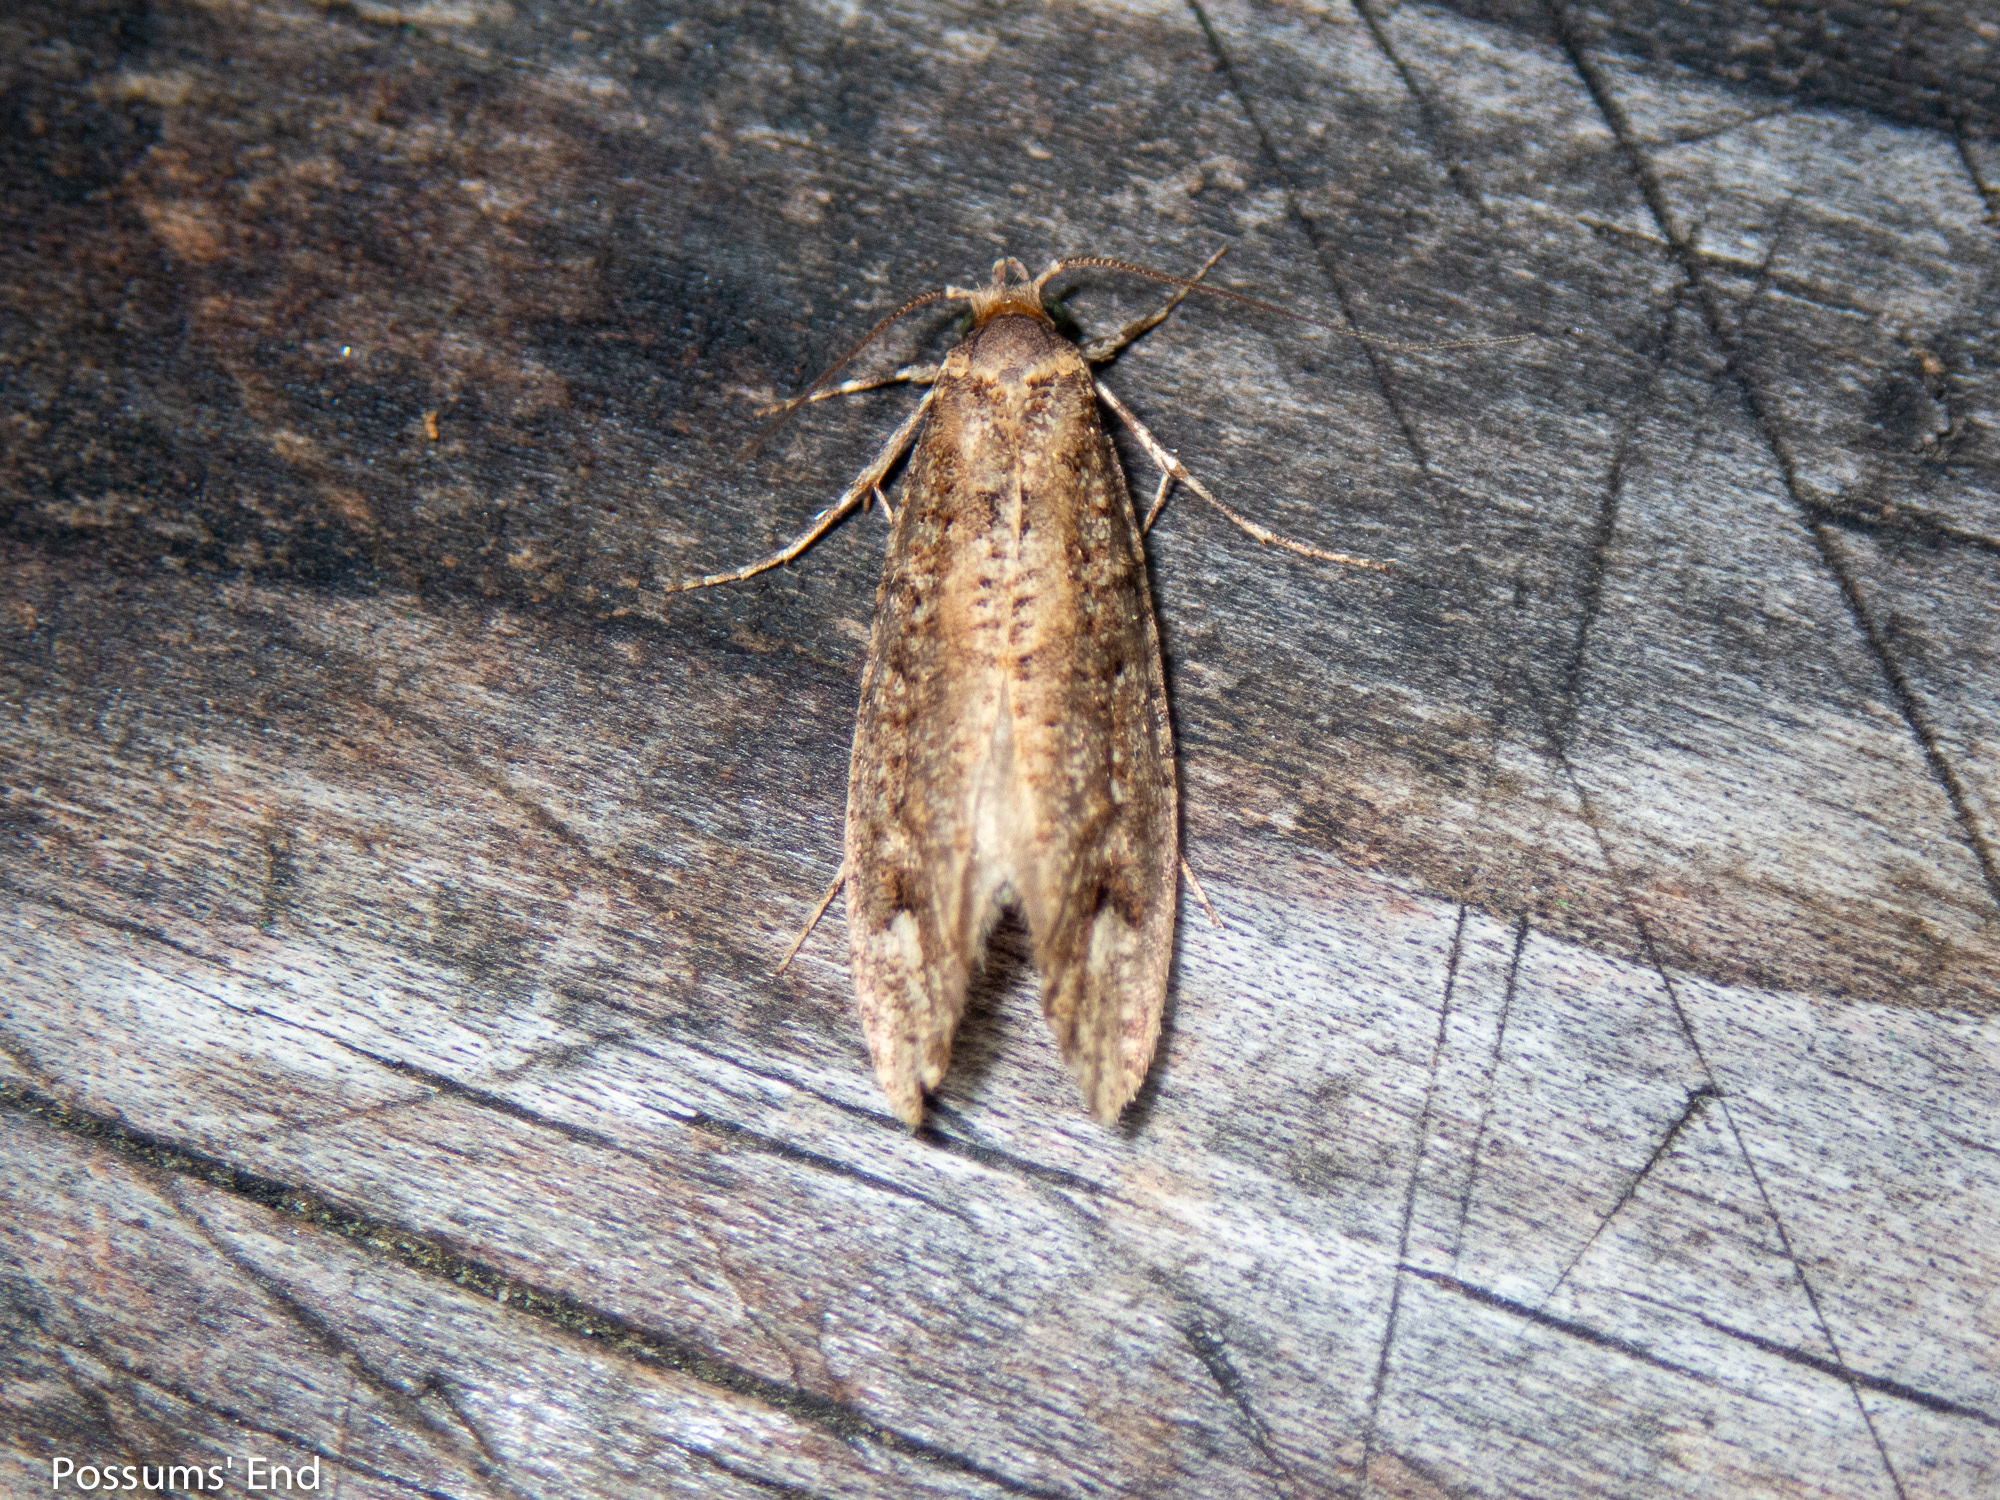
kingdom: Animalia
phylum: Arthropoda
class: Insecta
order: Lepidoptera
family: Tineidae
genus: Lysiphragma
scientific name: Lysiphragma epixyla
